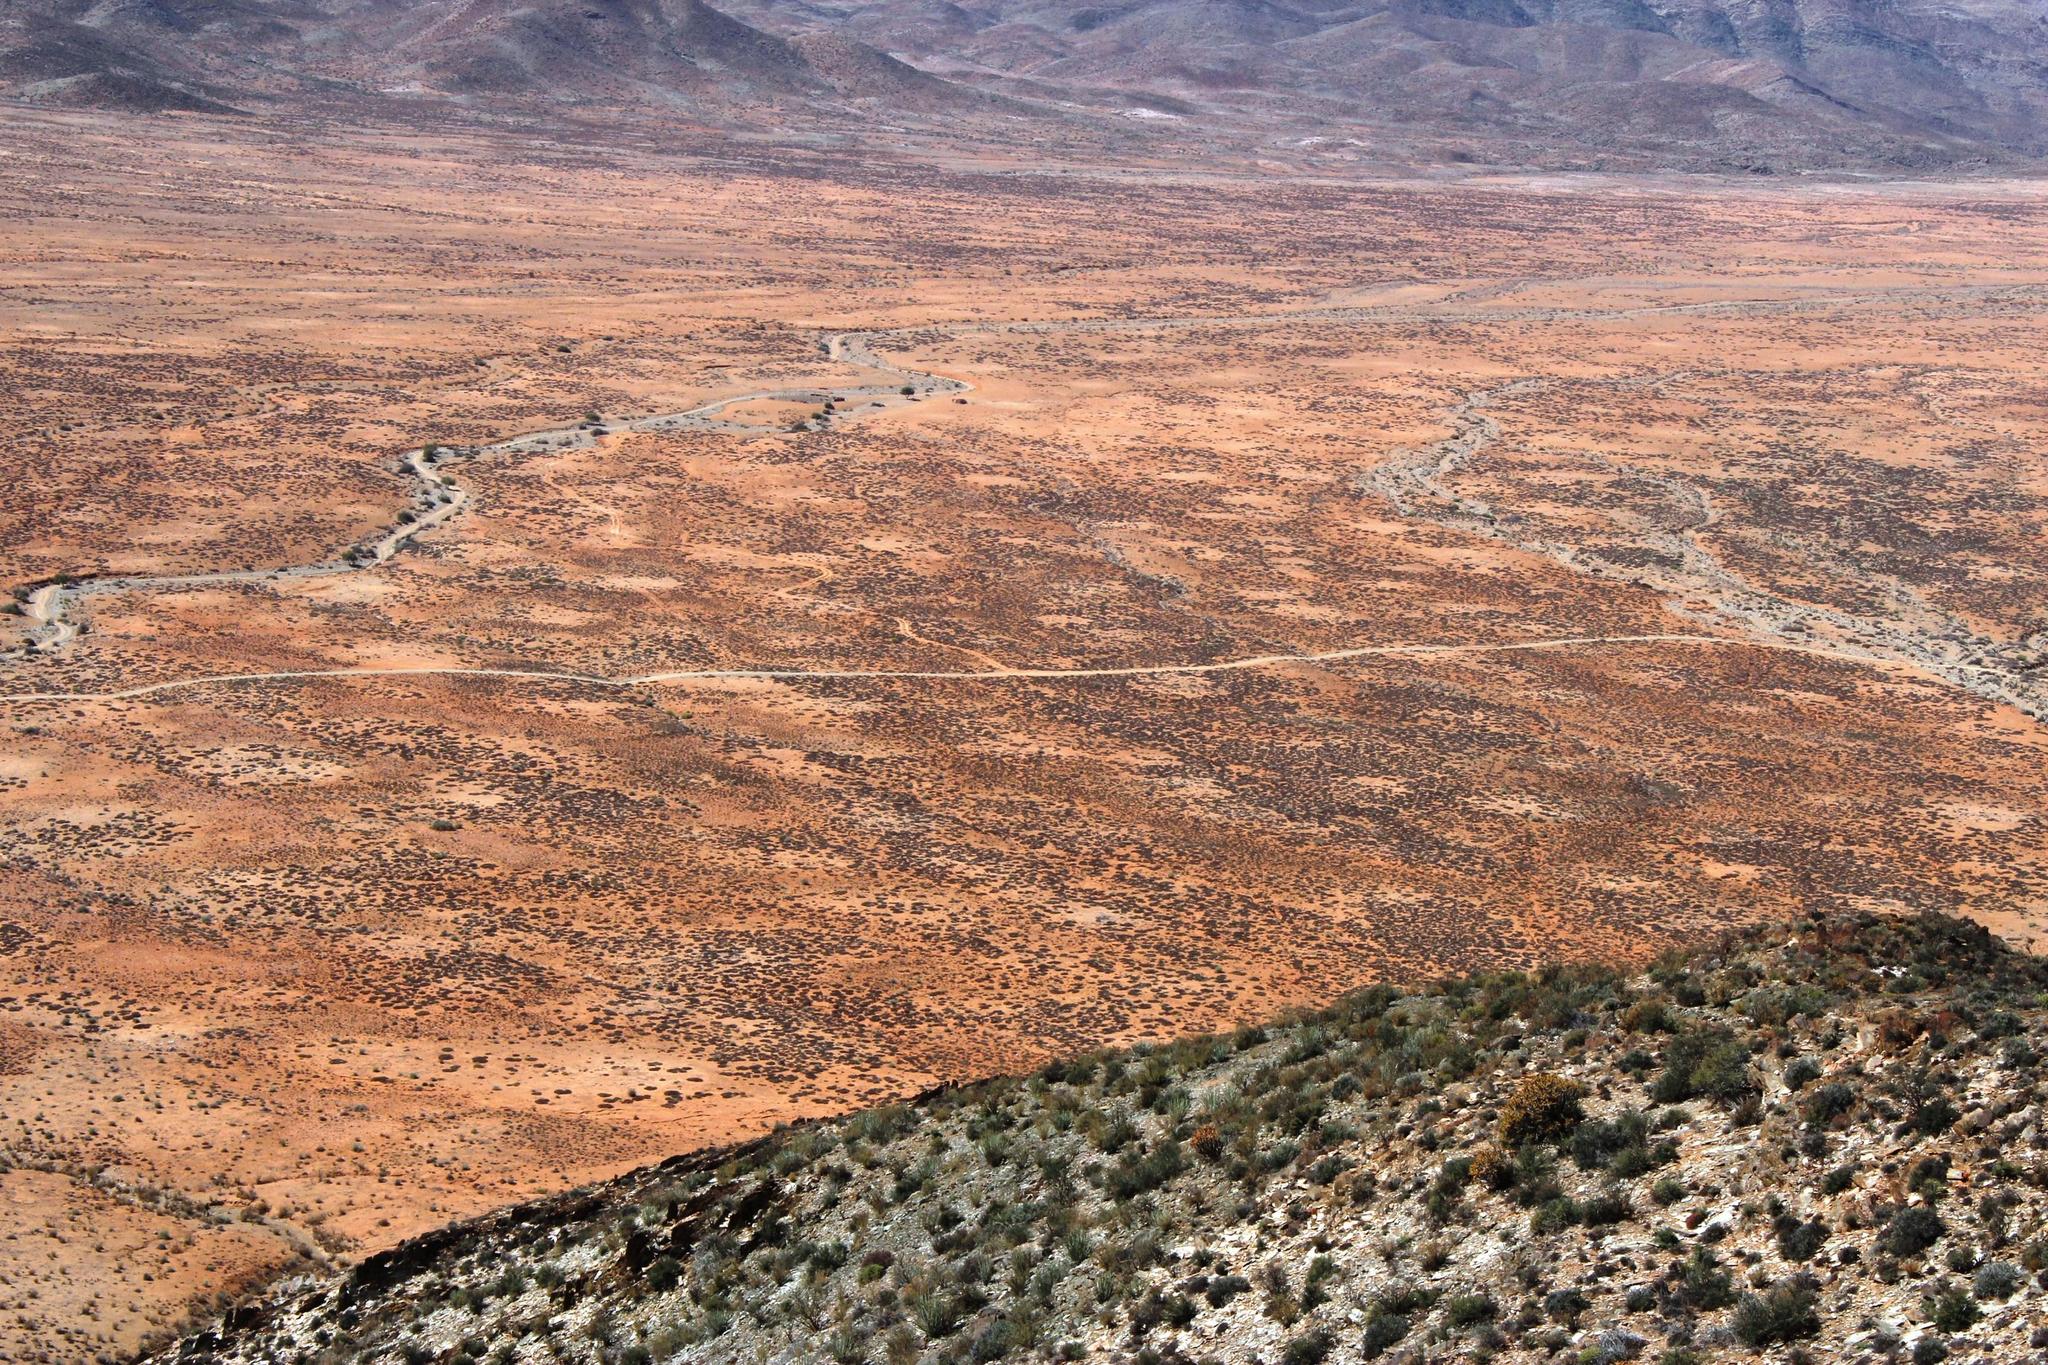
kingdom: Animalia
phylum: Arthropoda
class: Insecta
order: Blattodea
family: Hodotermitidae
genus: Microhodotermes
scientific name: Microhodotermes viator
